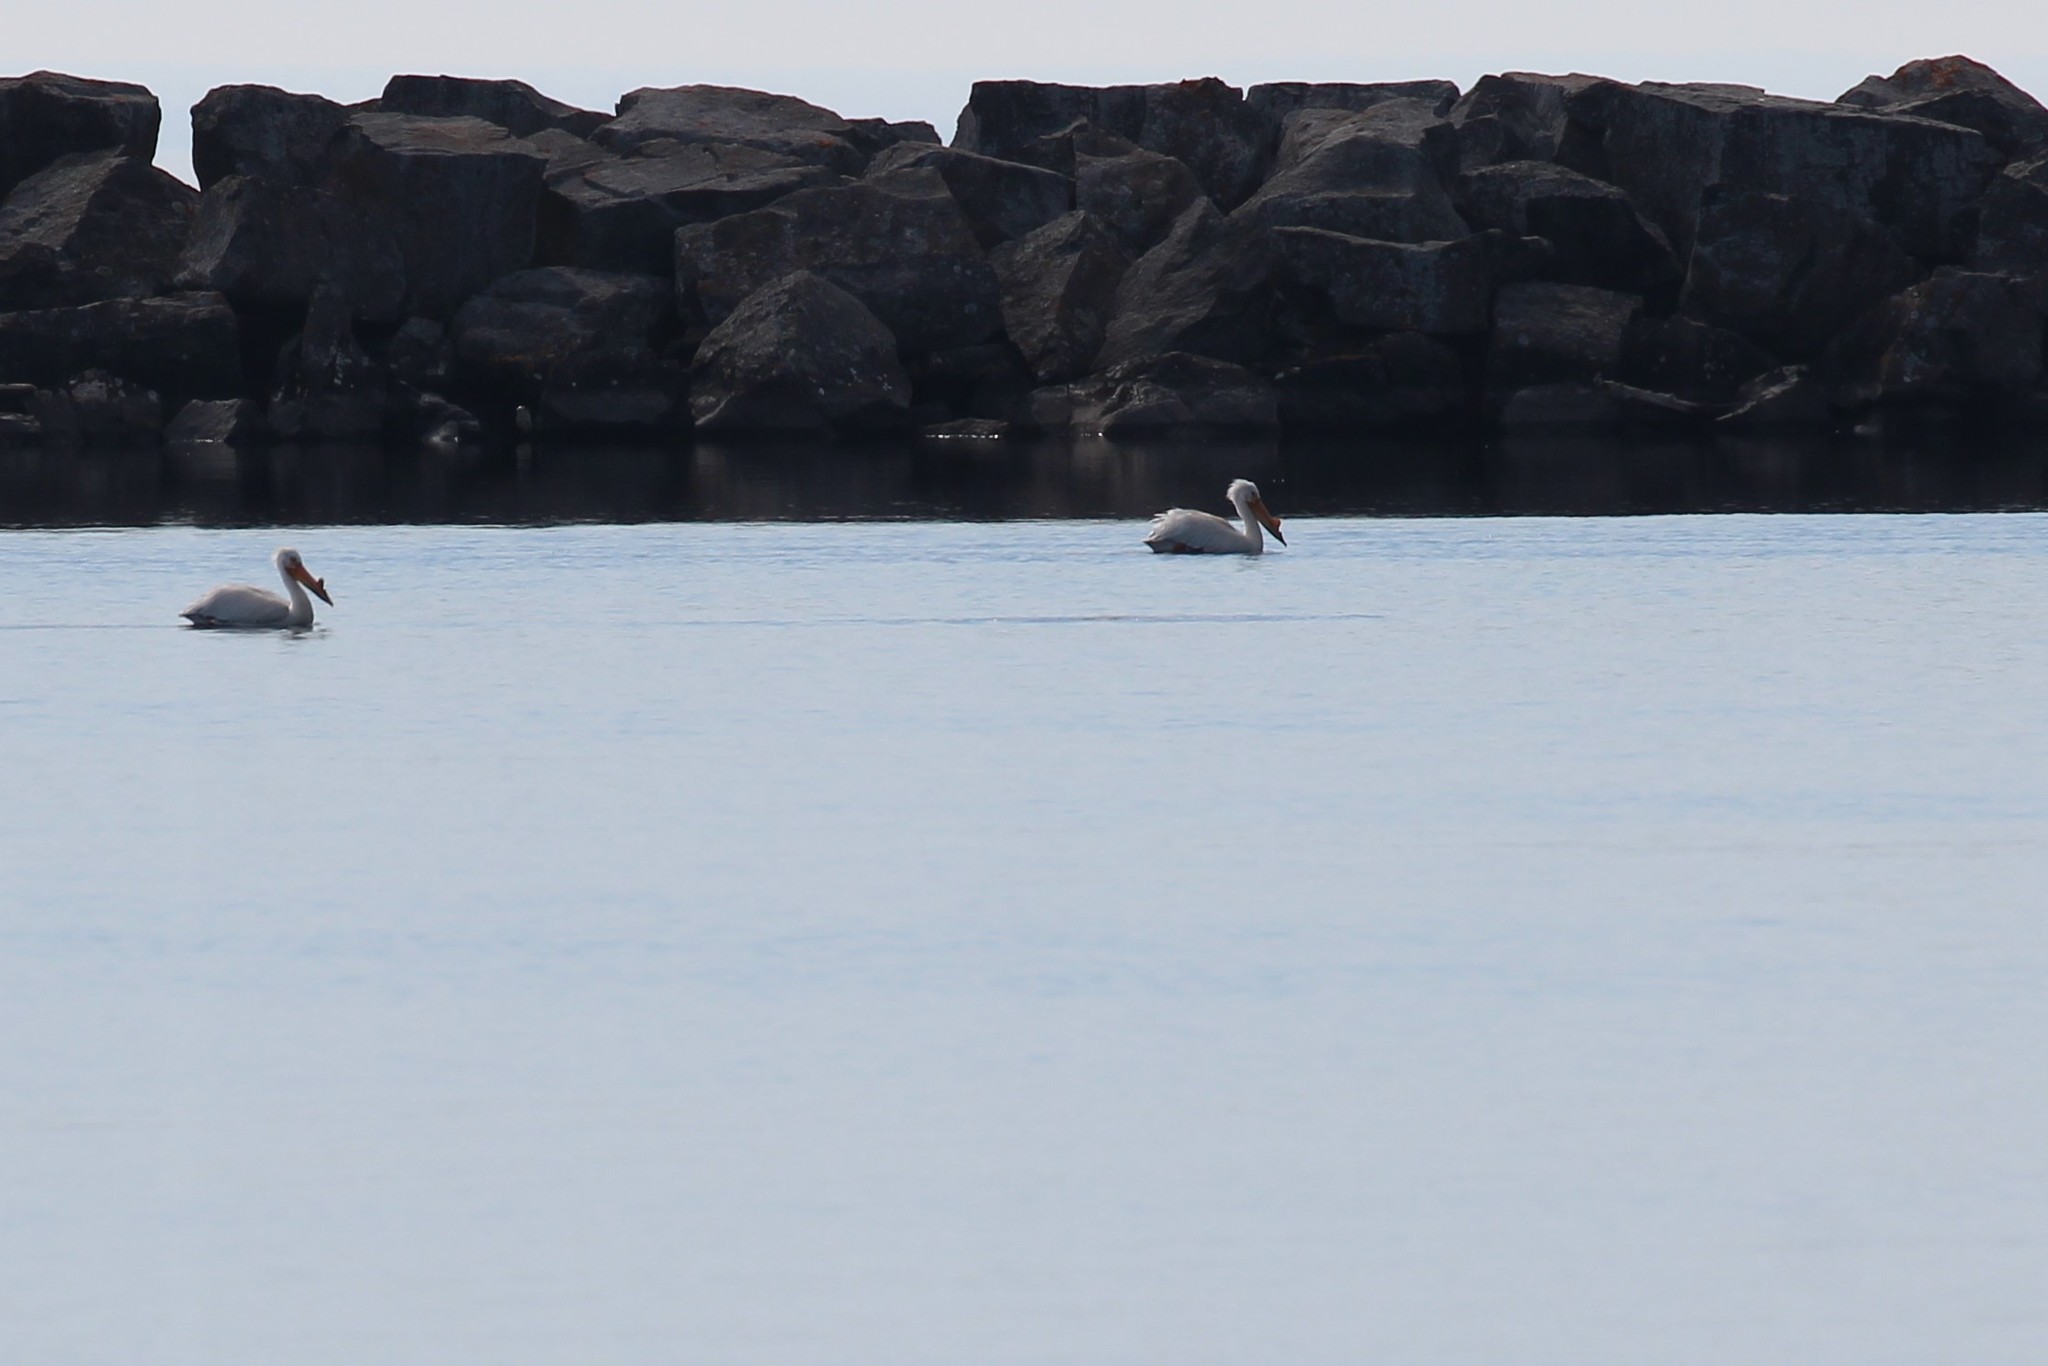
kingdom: Animalia
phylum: Chordata
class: Aves
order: Pelecaniformes
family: Pelecanidae
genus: Pelecanus
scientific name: Pelecanus erythrorhynchos
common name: American white pelican
